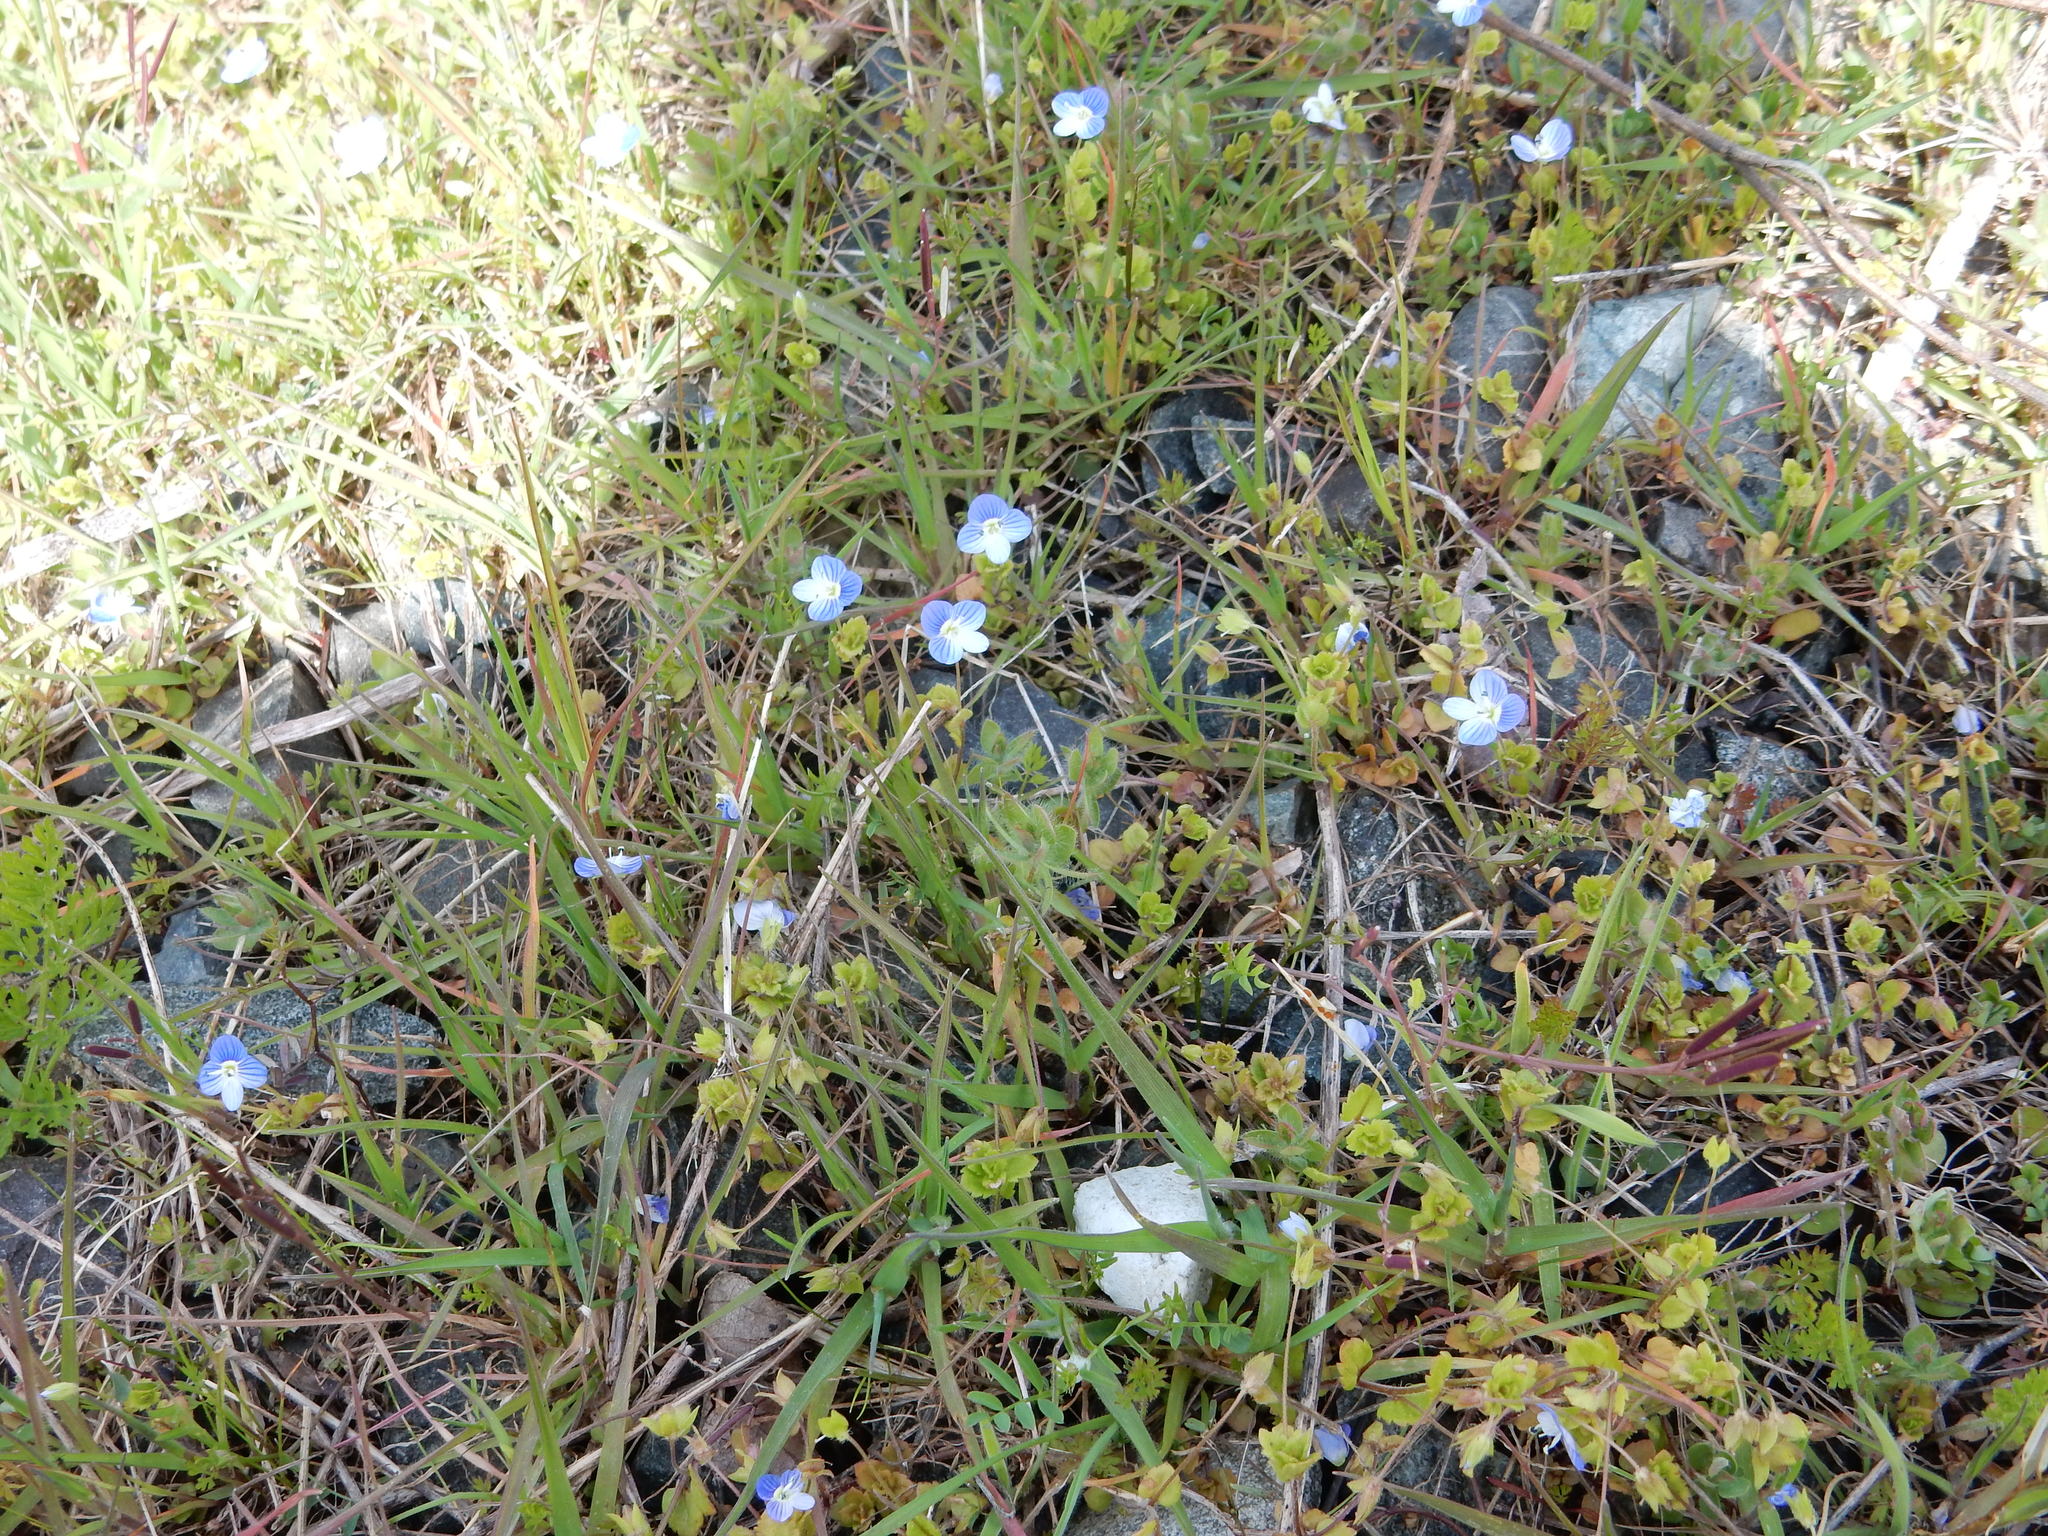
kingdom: Plantae
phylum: Tracheophyta
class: Magnoliopsida
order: Lamiales
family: Plantaginaceae
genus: Veronica
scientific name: Veronica persica
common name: Common field-speedwell
